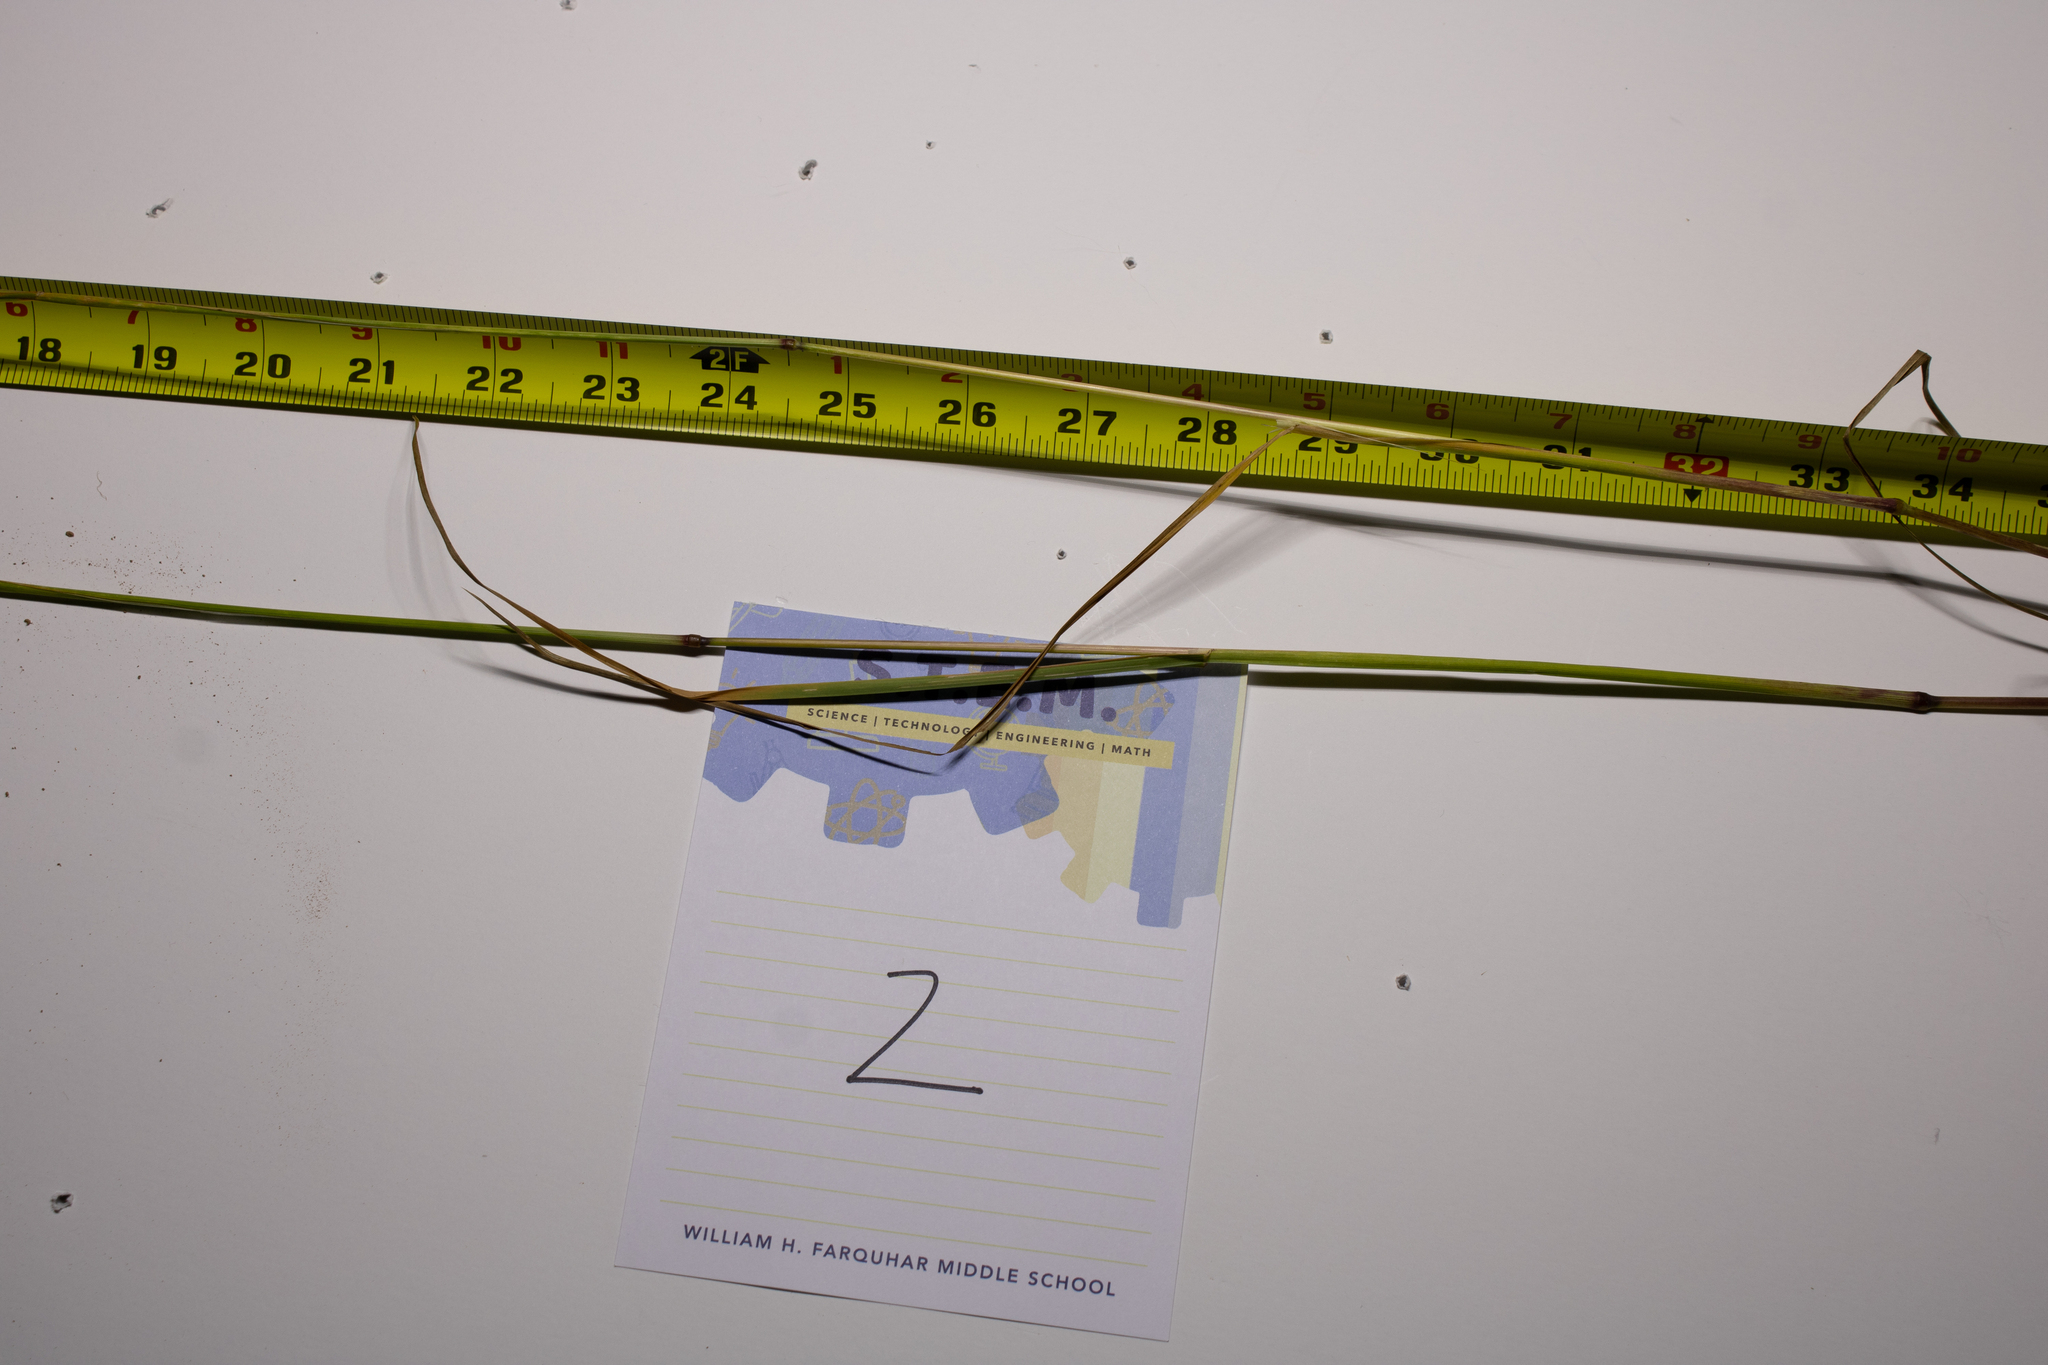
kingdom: Plantae
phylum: Tracheophyta
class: Liliopsida
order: Poales
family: Poaceae
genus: Dactylis
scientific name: Dactylis glomerata
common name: Orchardgrass
